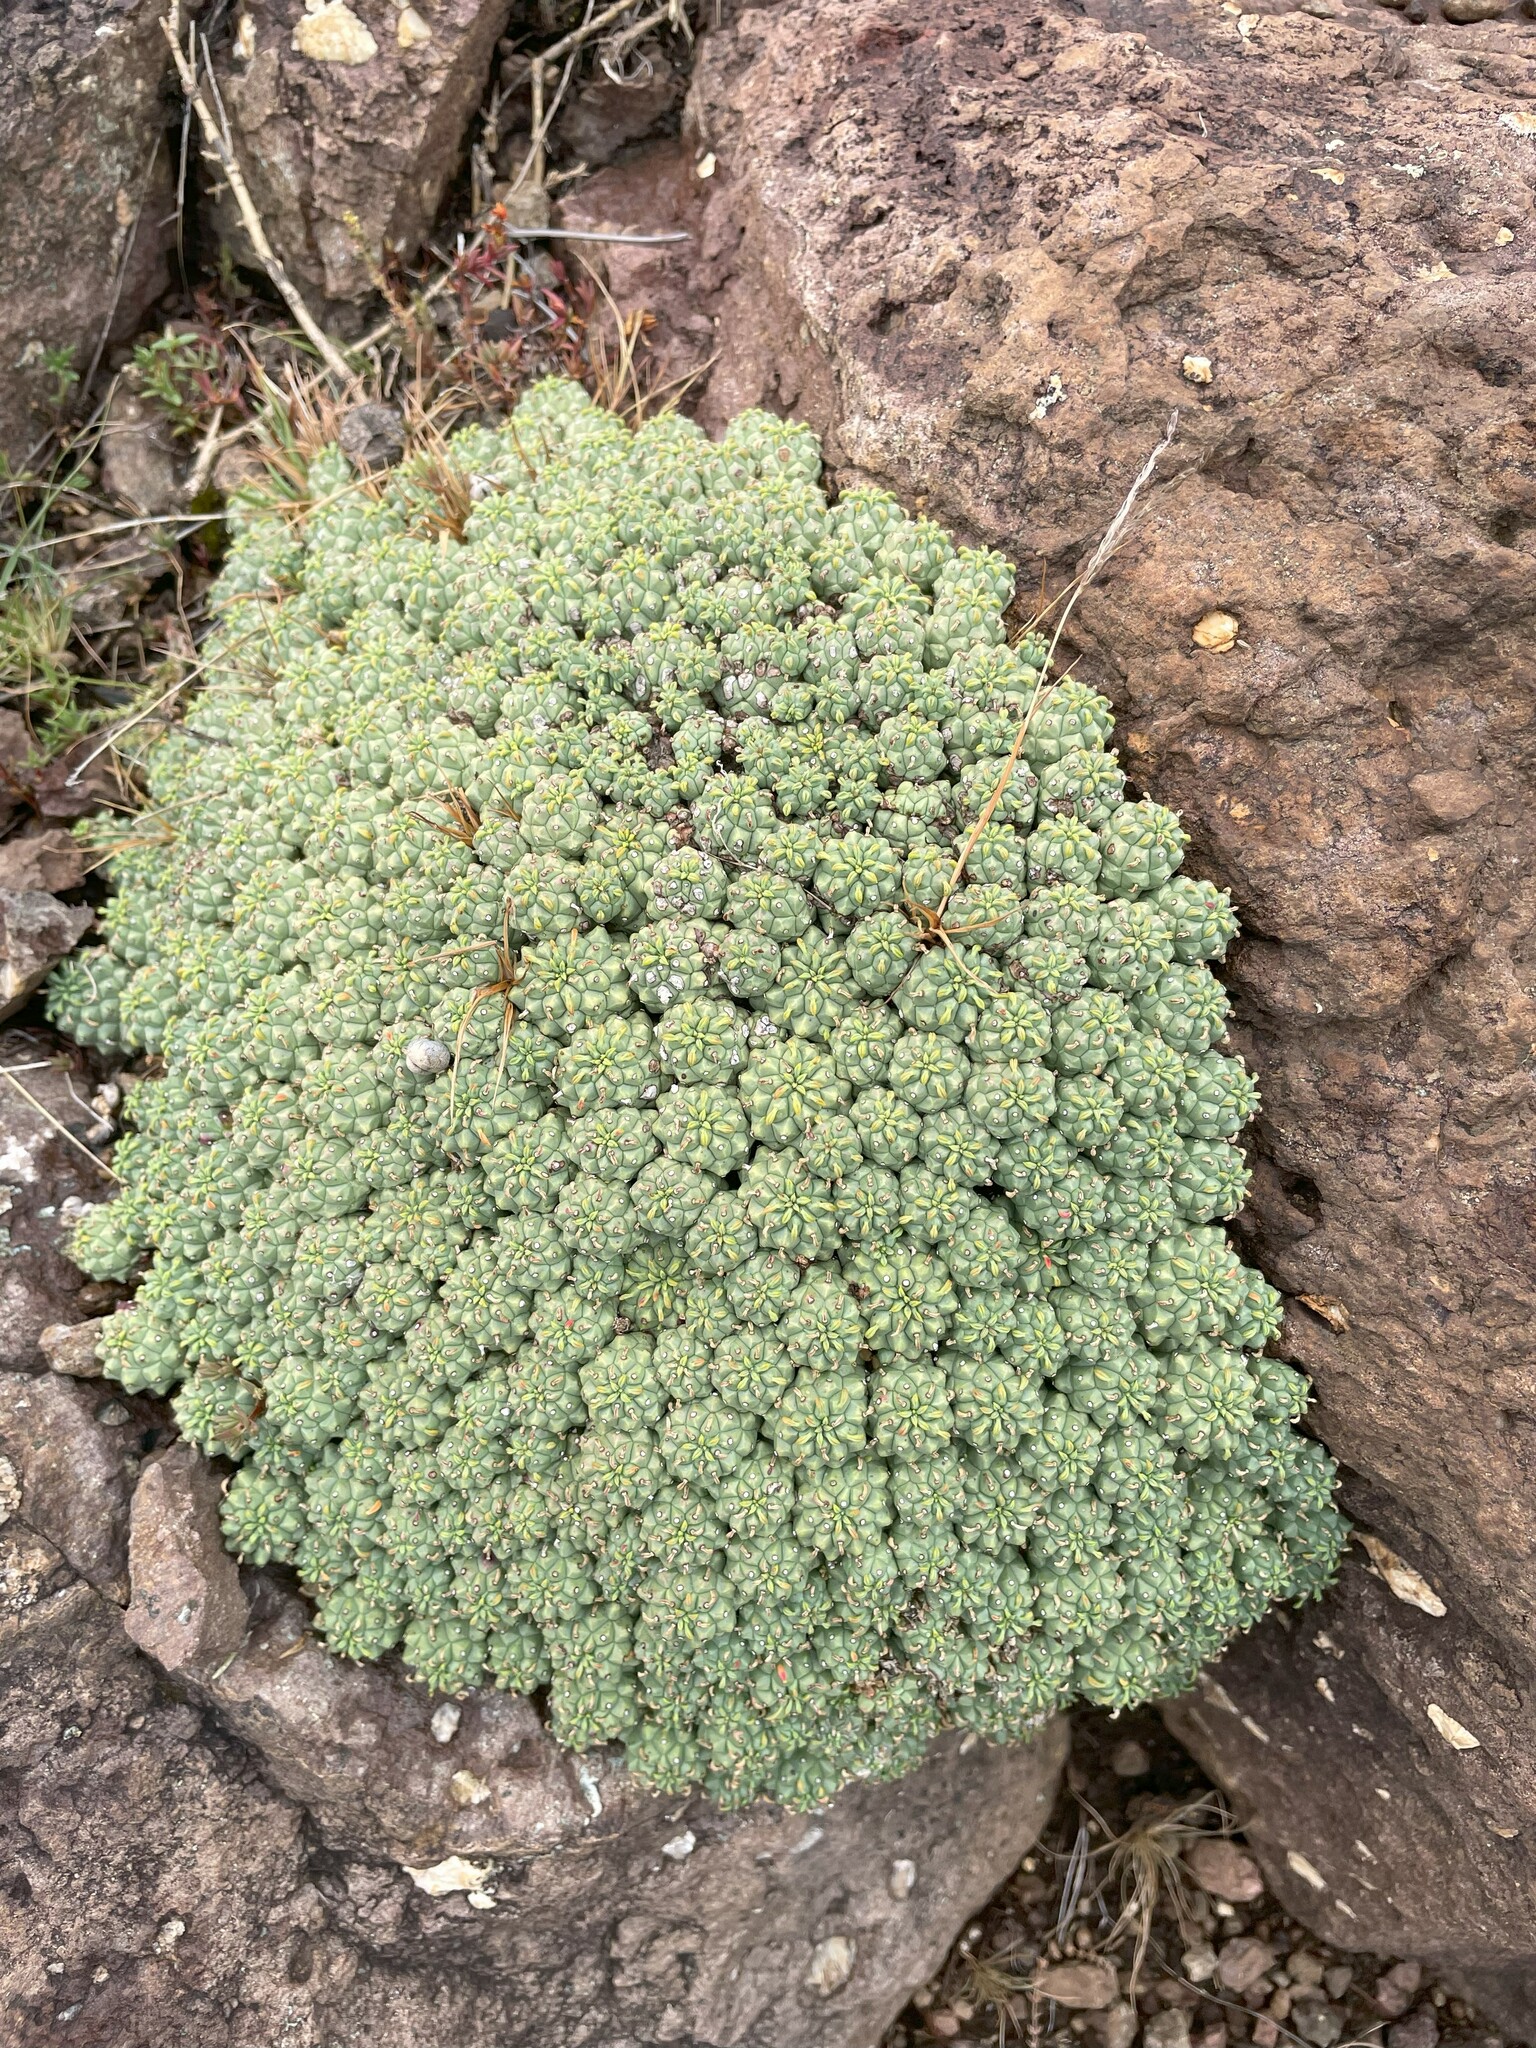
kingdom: Plantae
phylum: Tracheophyta
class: Magnoliopsida
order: Malpighiales
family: Euphorbiaceae
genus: Euphorbia
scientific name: Euphorbia clavarioides
